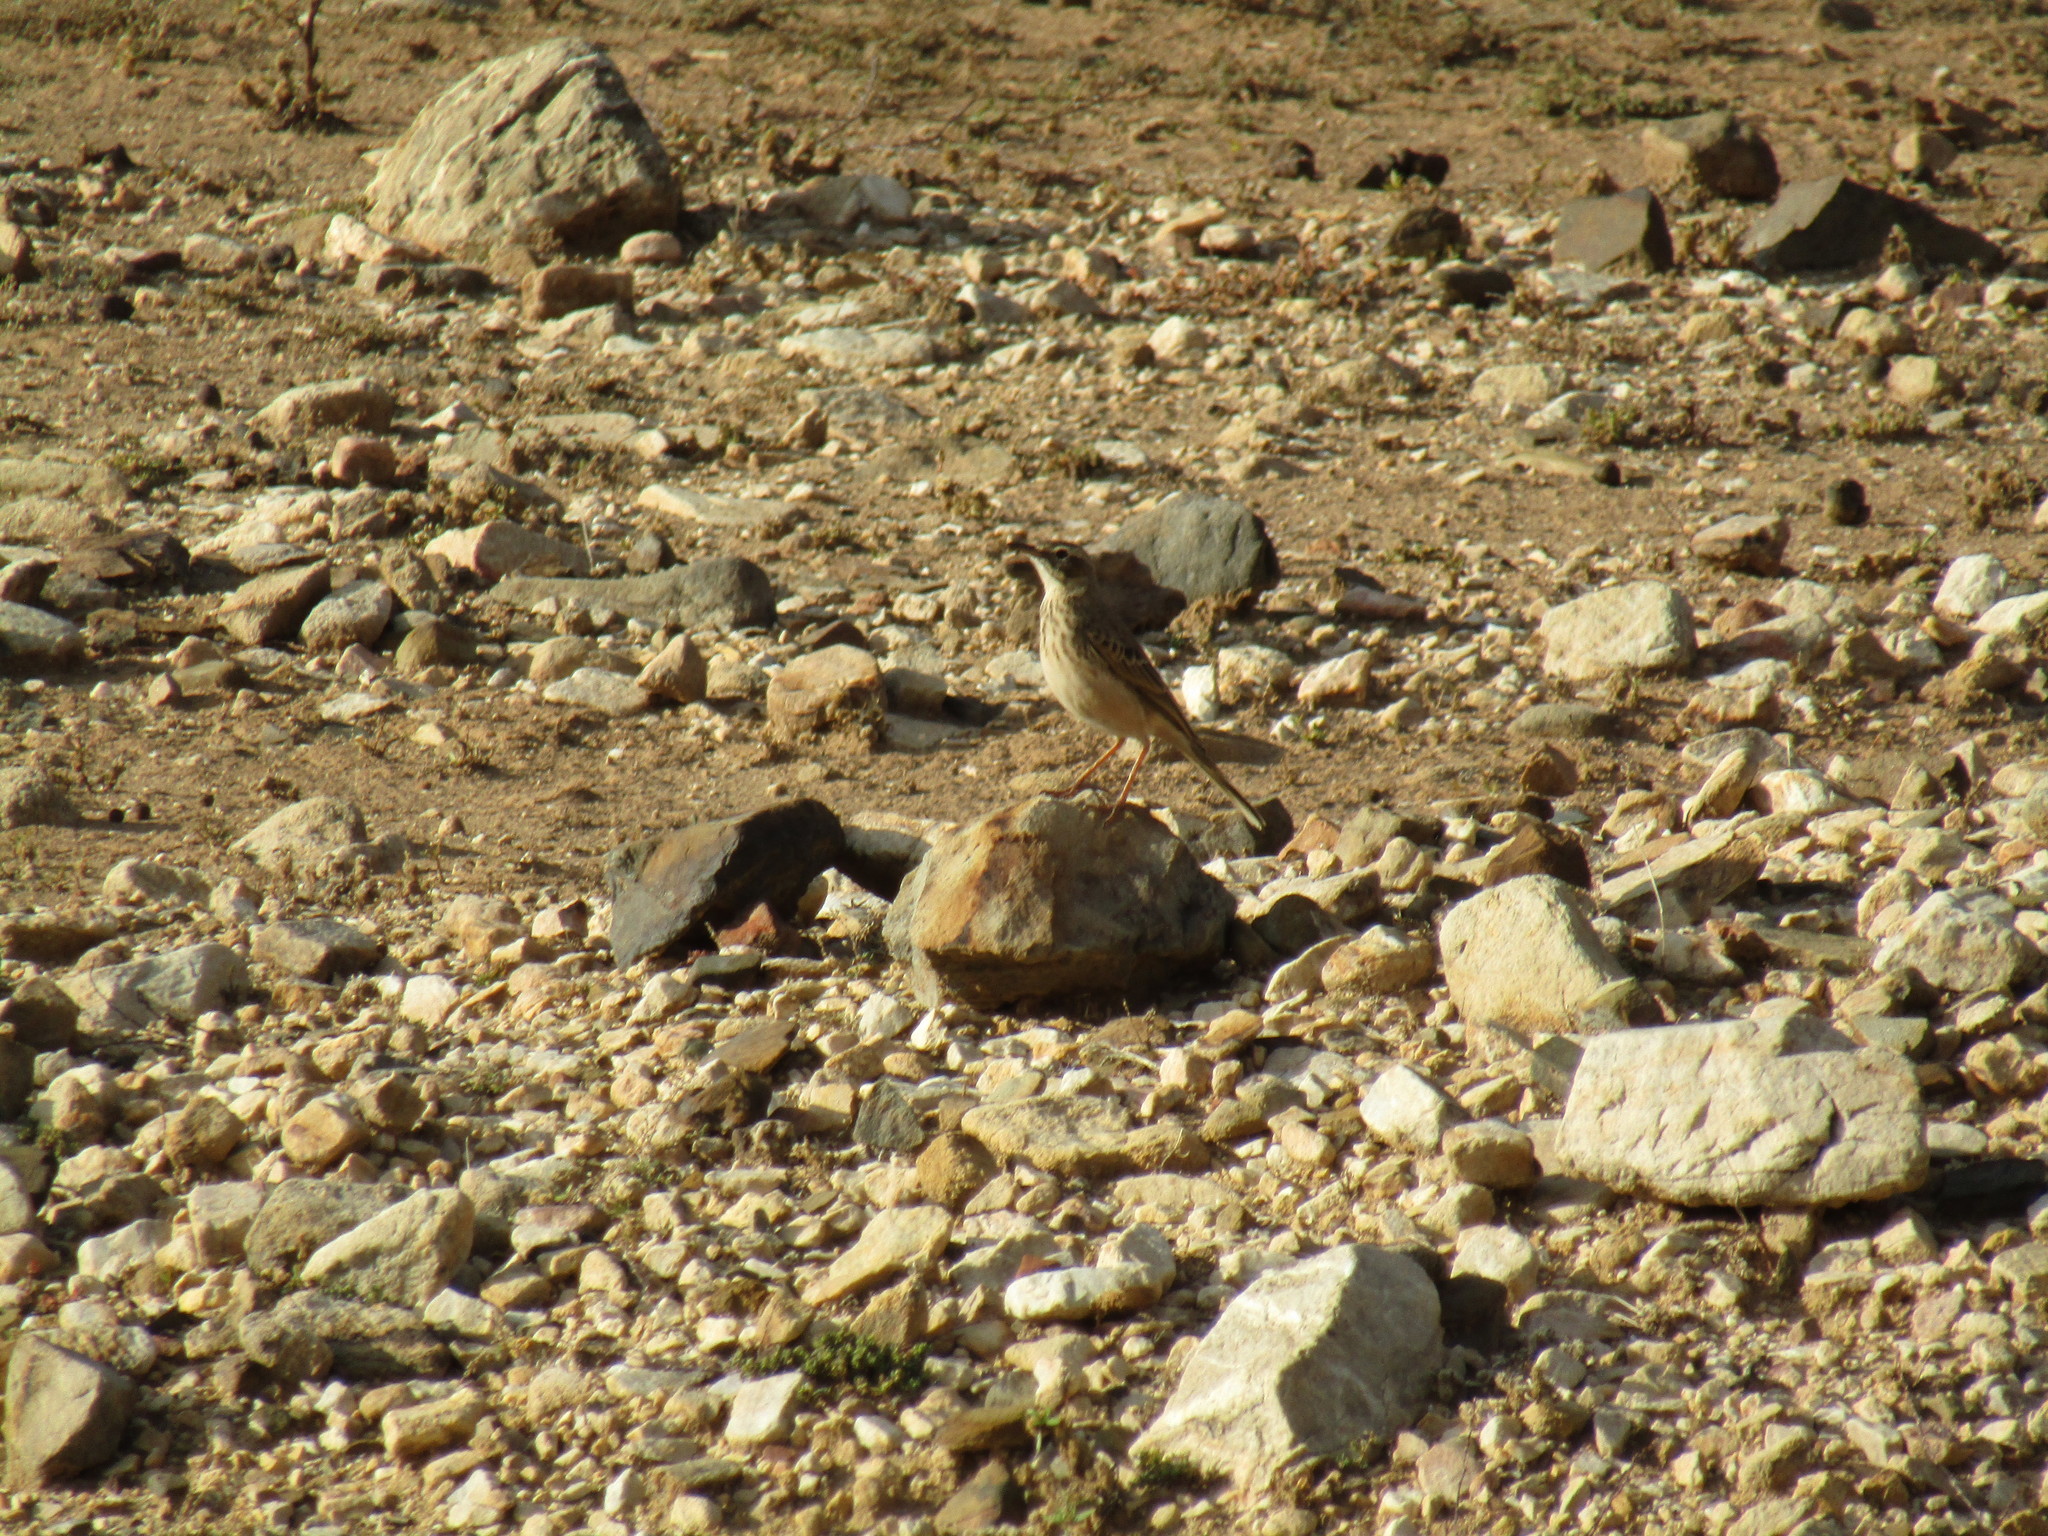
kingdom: Animalia
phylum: Chordata
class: Aves
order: Passeriformes
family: Motacillidae
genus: Anthus
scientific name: Anthus nicholsoni
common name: Nicholson's pipit
